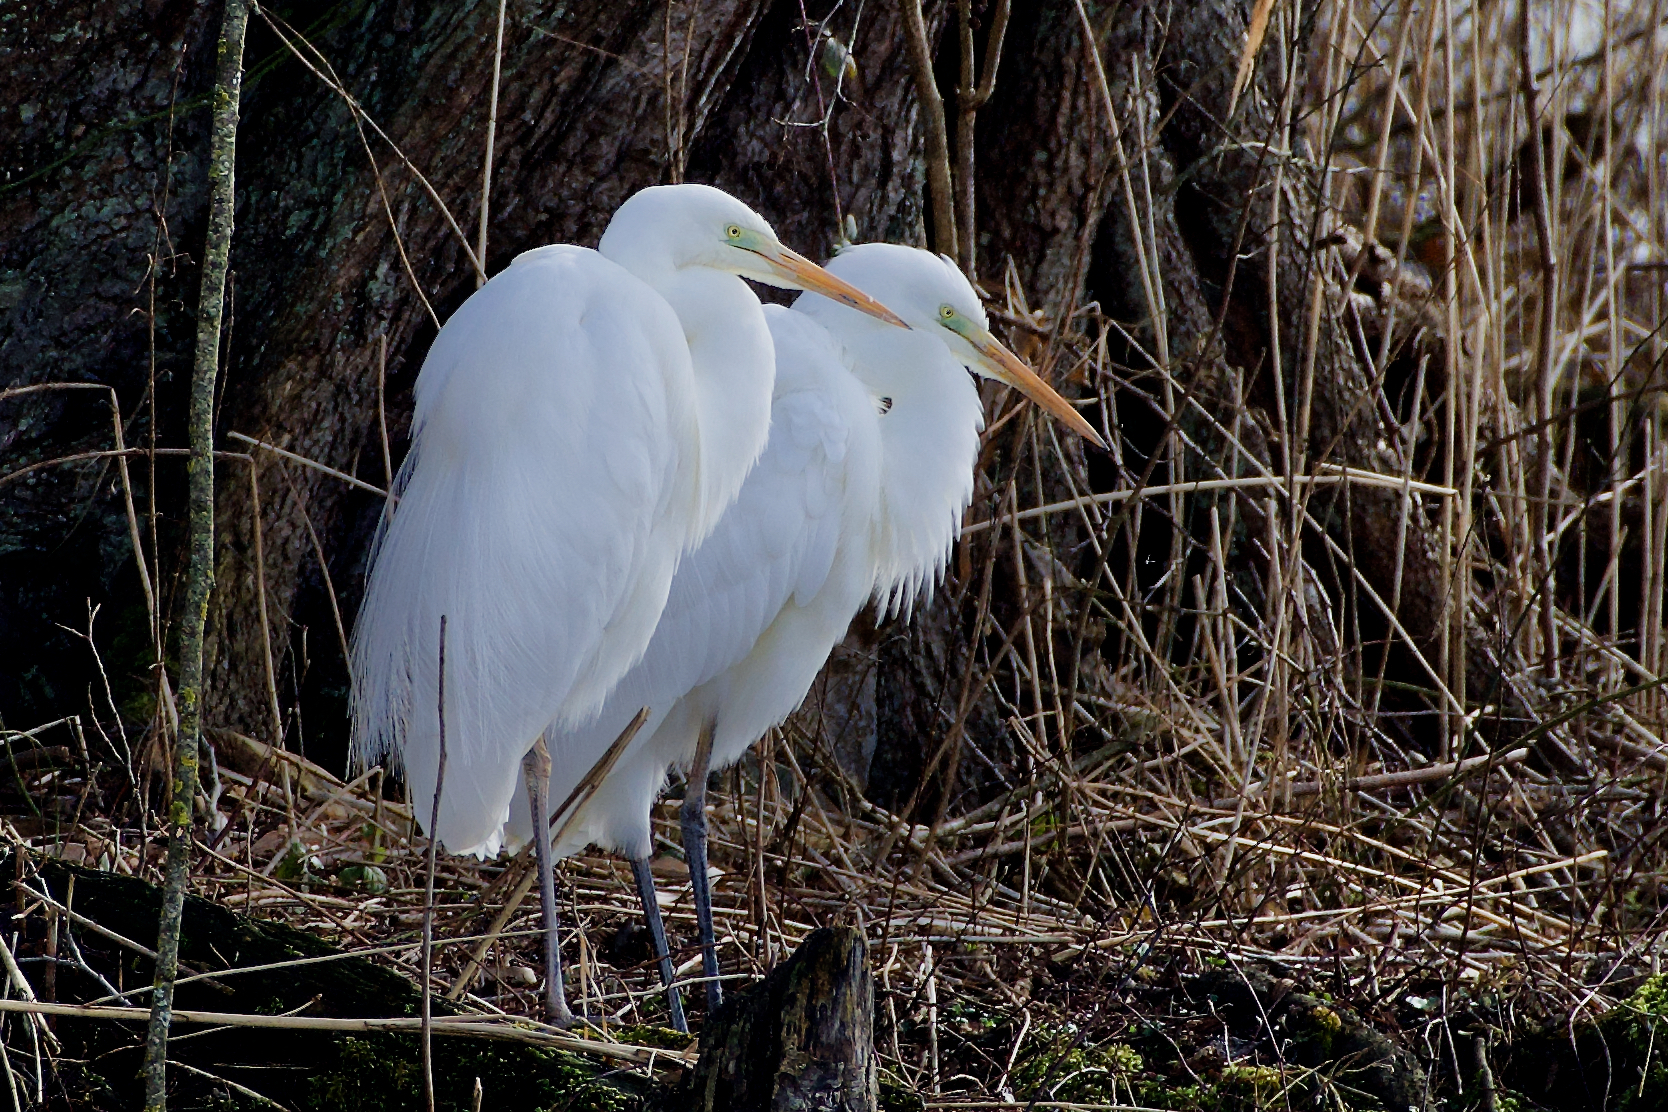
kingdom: Animalia
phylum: Chordata
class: Aves
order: Pelecaniformes
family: Ardeidae
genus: Ardea
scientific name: Ardea alba
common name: Great egret
